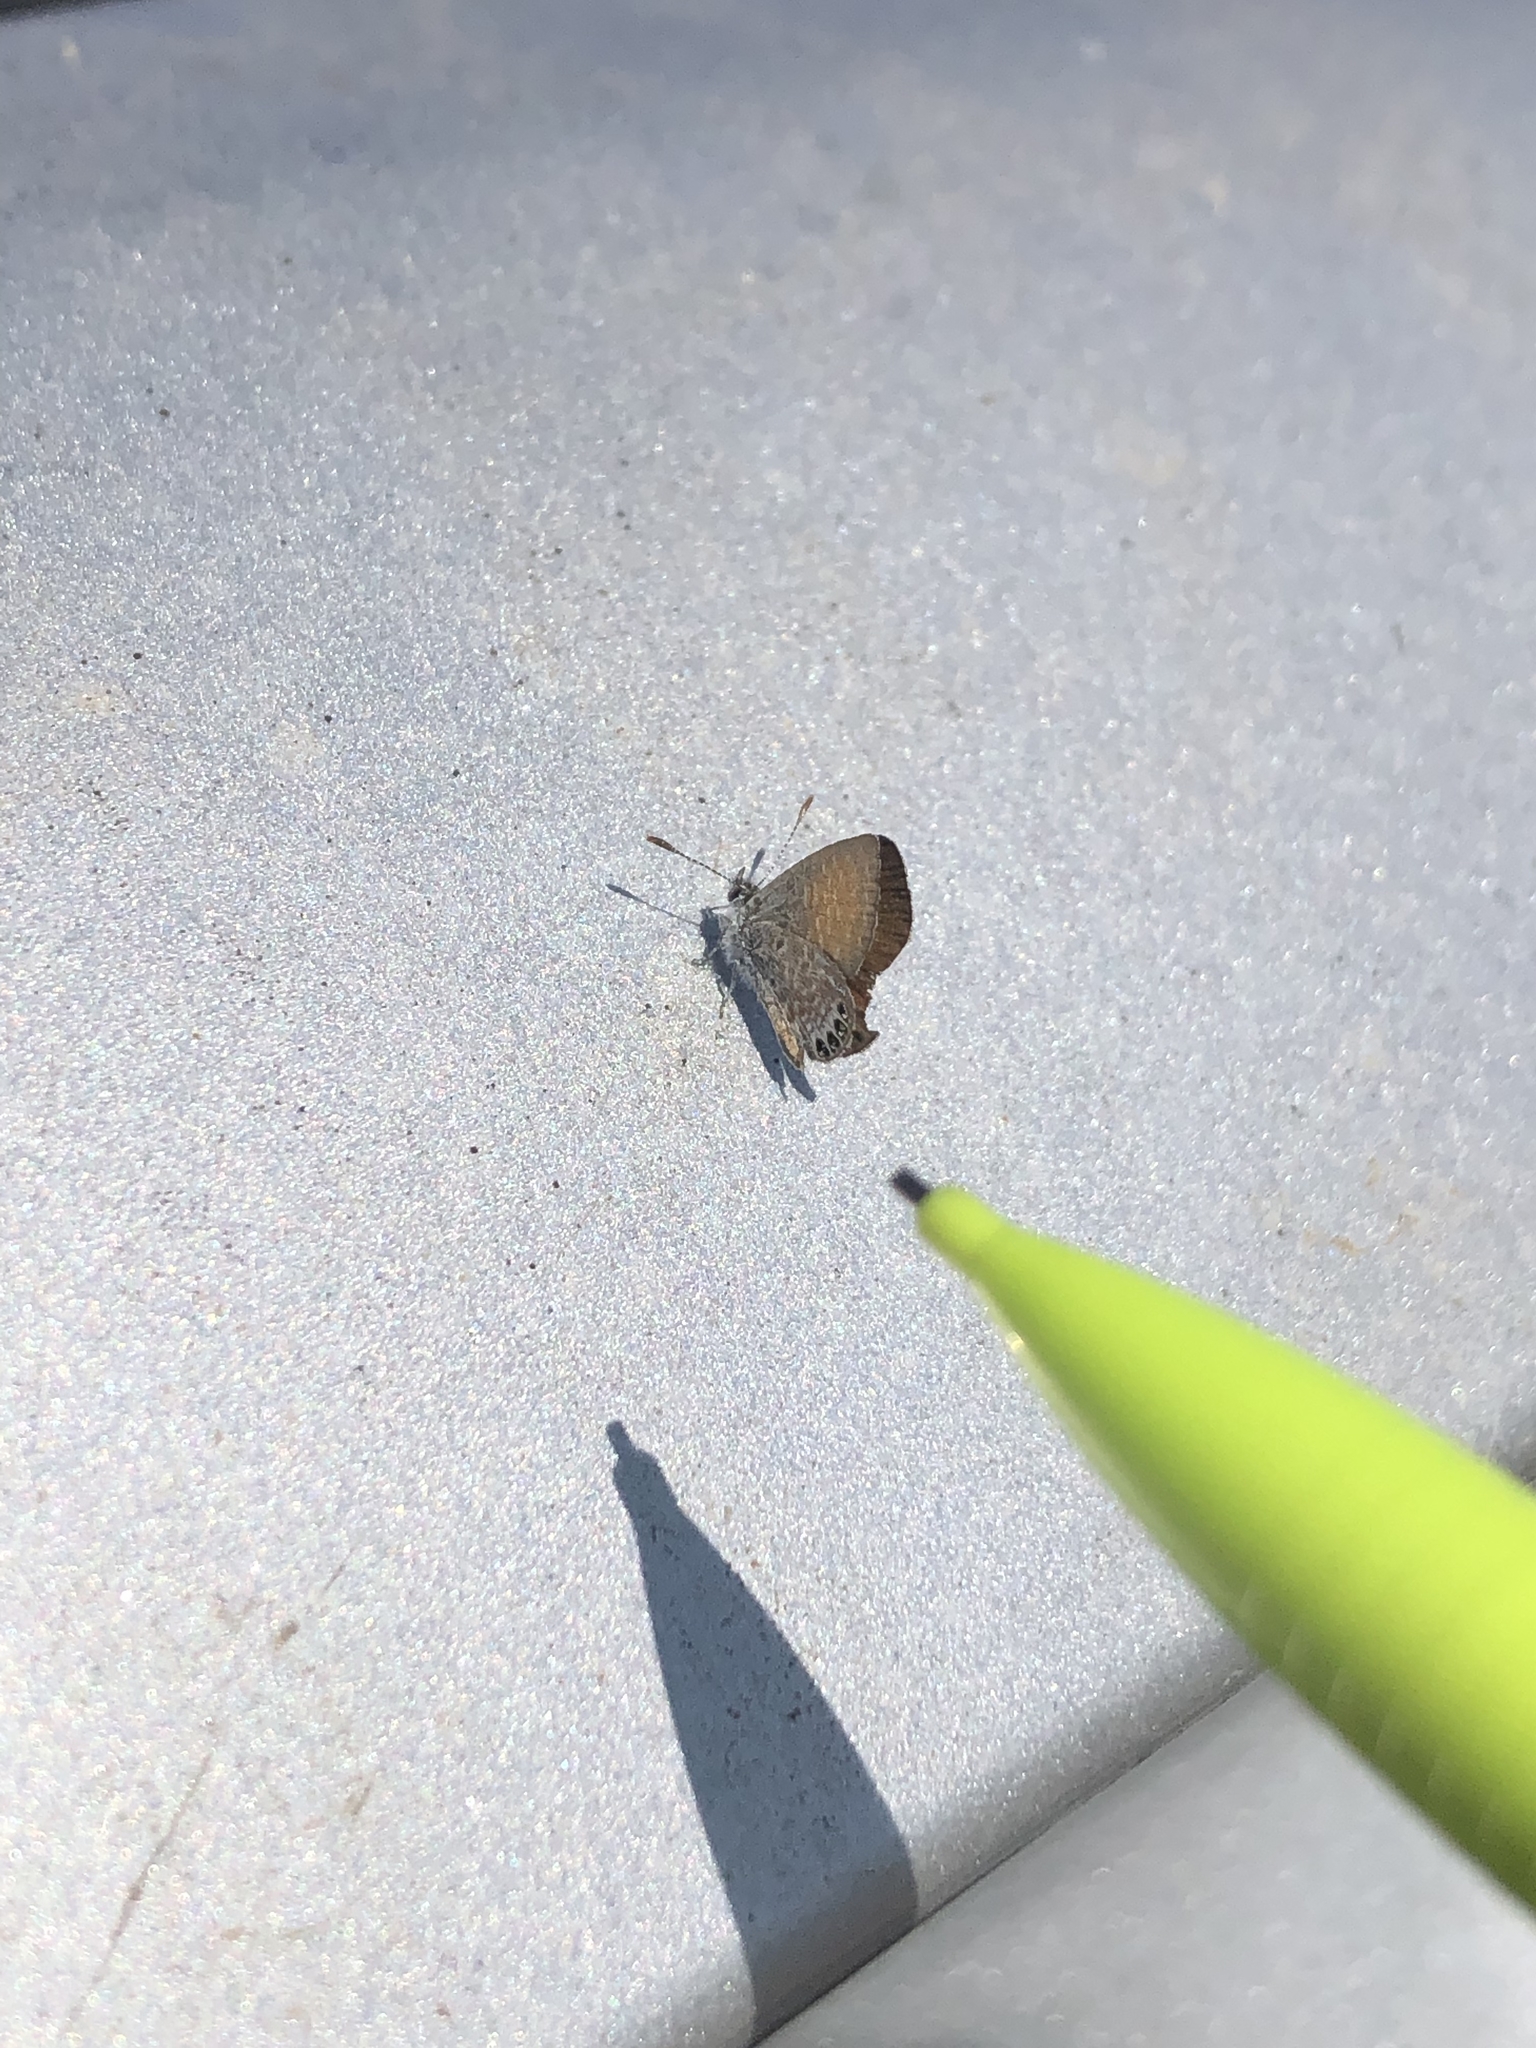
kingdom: Animalia
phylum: Arthropoda
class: Insecta
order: Lepidoptera
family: Lycaenidae
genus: Brephidium
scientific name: Brephidium exilis
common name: Pygmy blue
